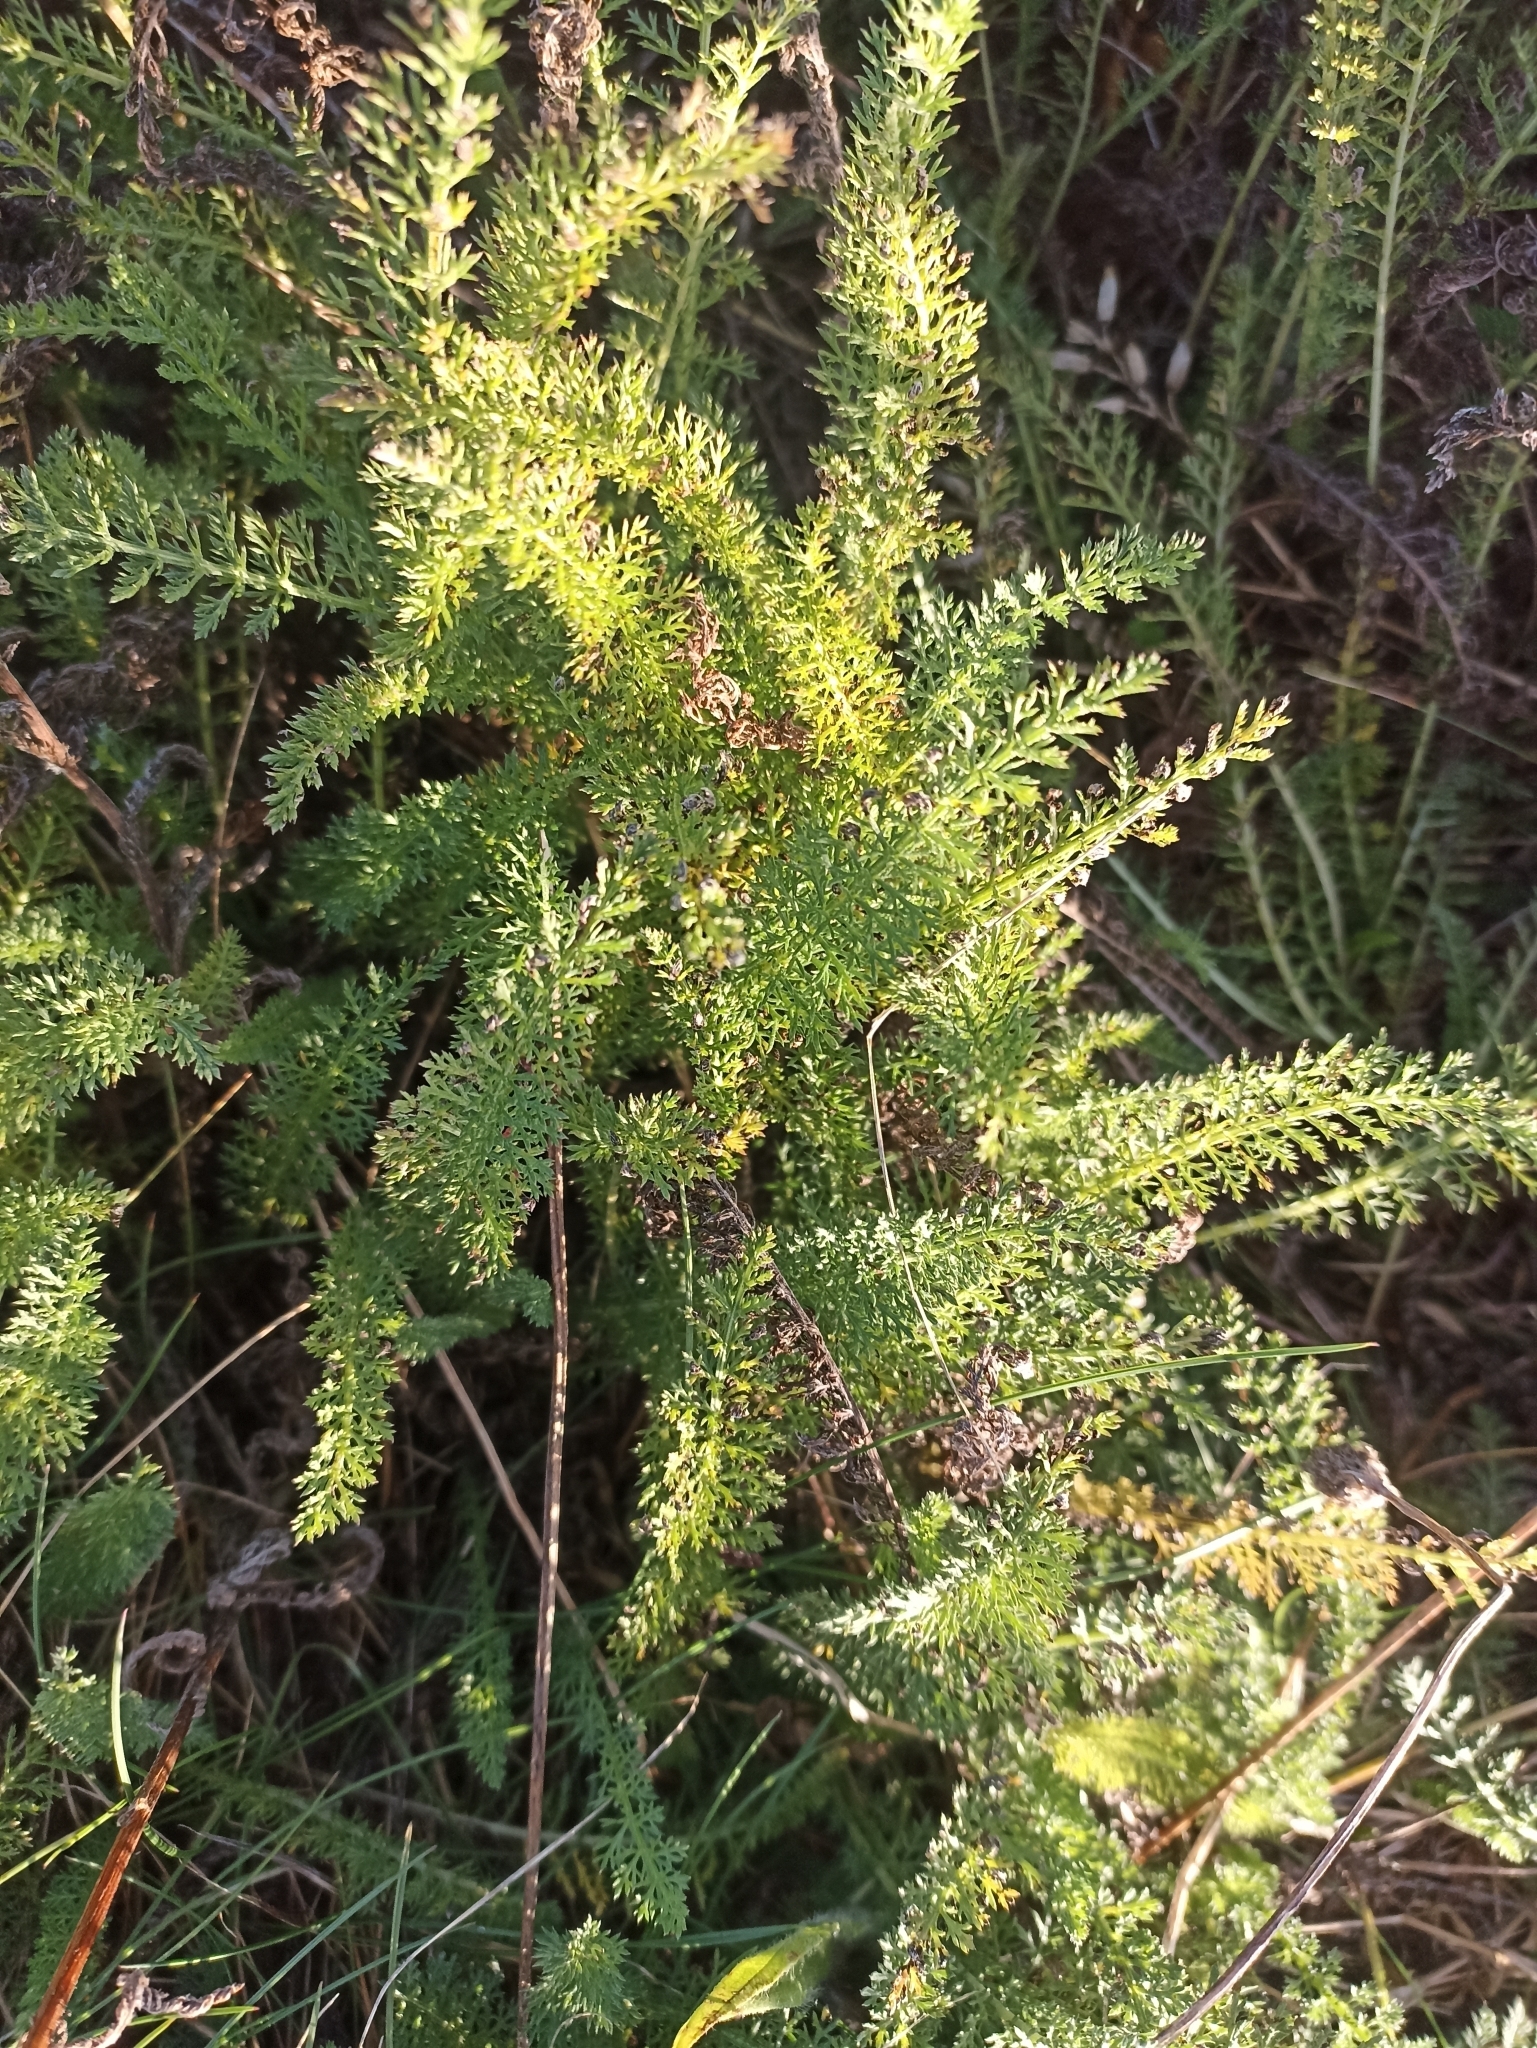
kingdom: Plantae
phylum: Tracheophyta
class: Magnoliopsida
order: Asterales
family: Asteraceae
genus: Achillea
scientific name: Achillea millefolium
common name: Yarrow
